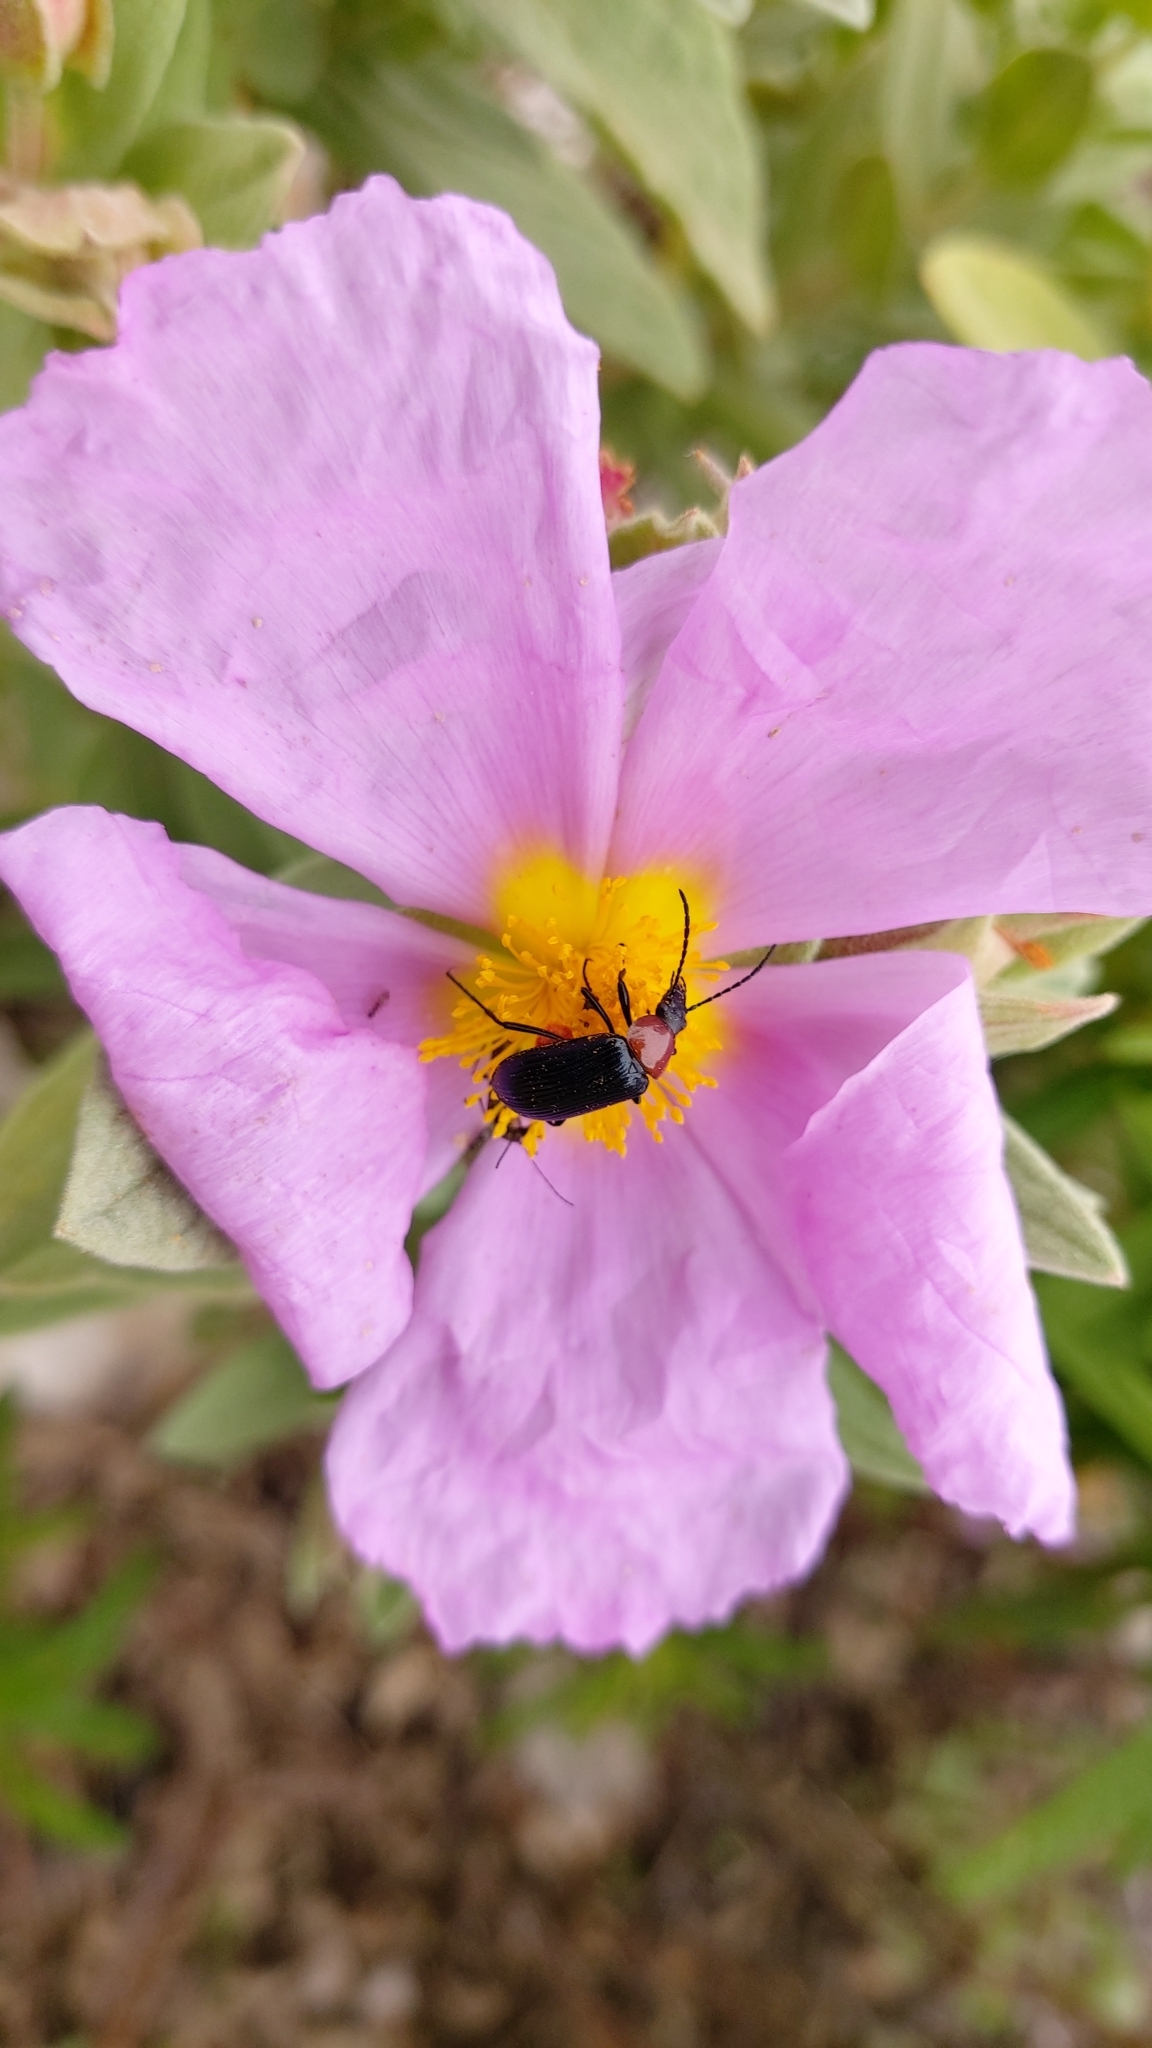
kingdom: Animalia
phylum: Arthropoda
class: Insecta
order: Coleoptera
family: Tenebrionidae
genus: Heliotaurus
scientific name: Heliotaurus ruficollis
